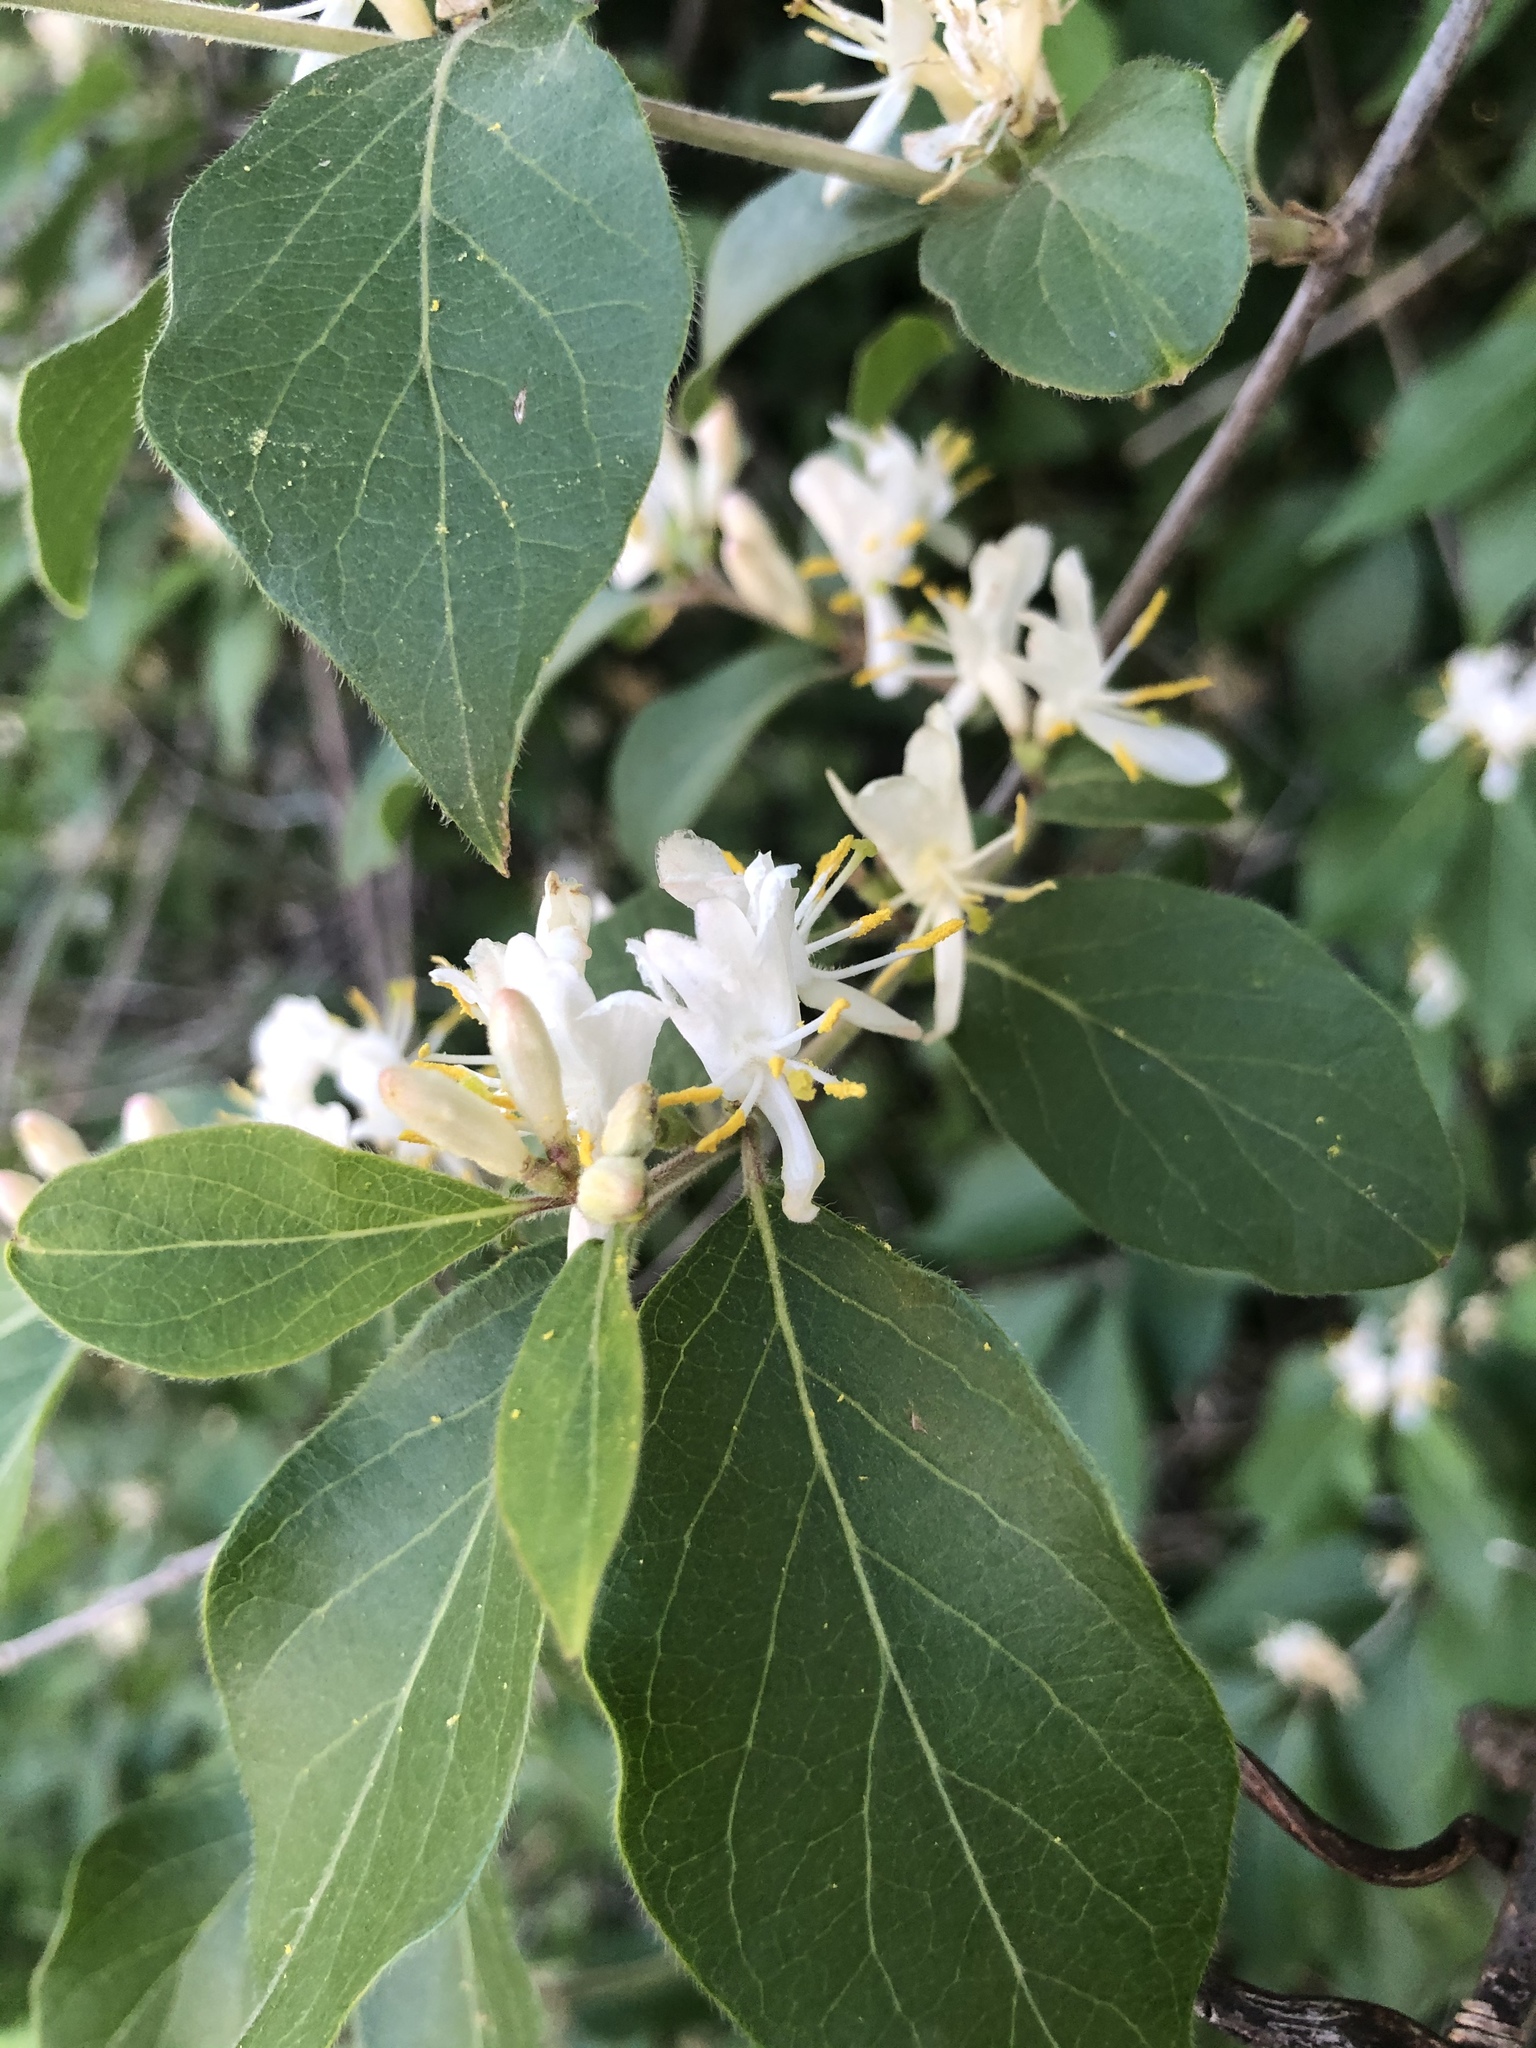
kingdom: Plantae
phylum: Tracheophyta
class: Magnoliopsida
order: Dipsacales
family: Caprifoliaceae
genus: Lonicera
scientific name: Lonicera maackii
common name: Amur honeysuckle
